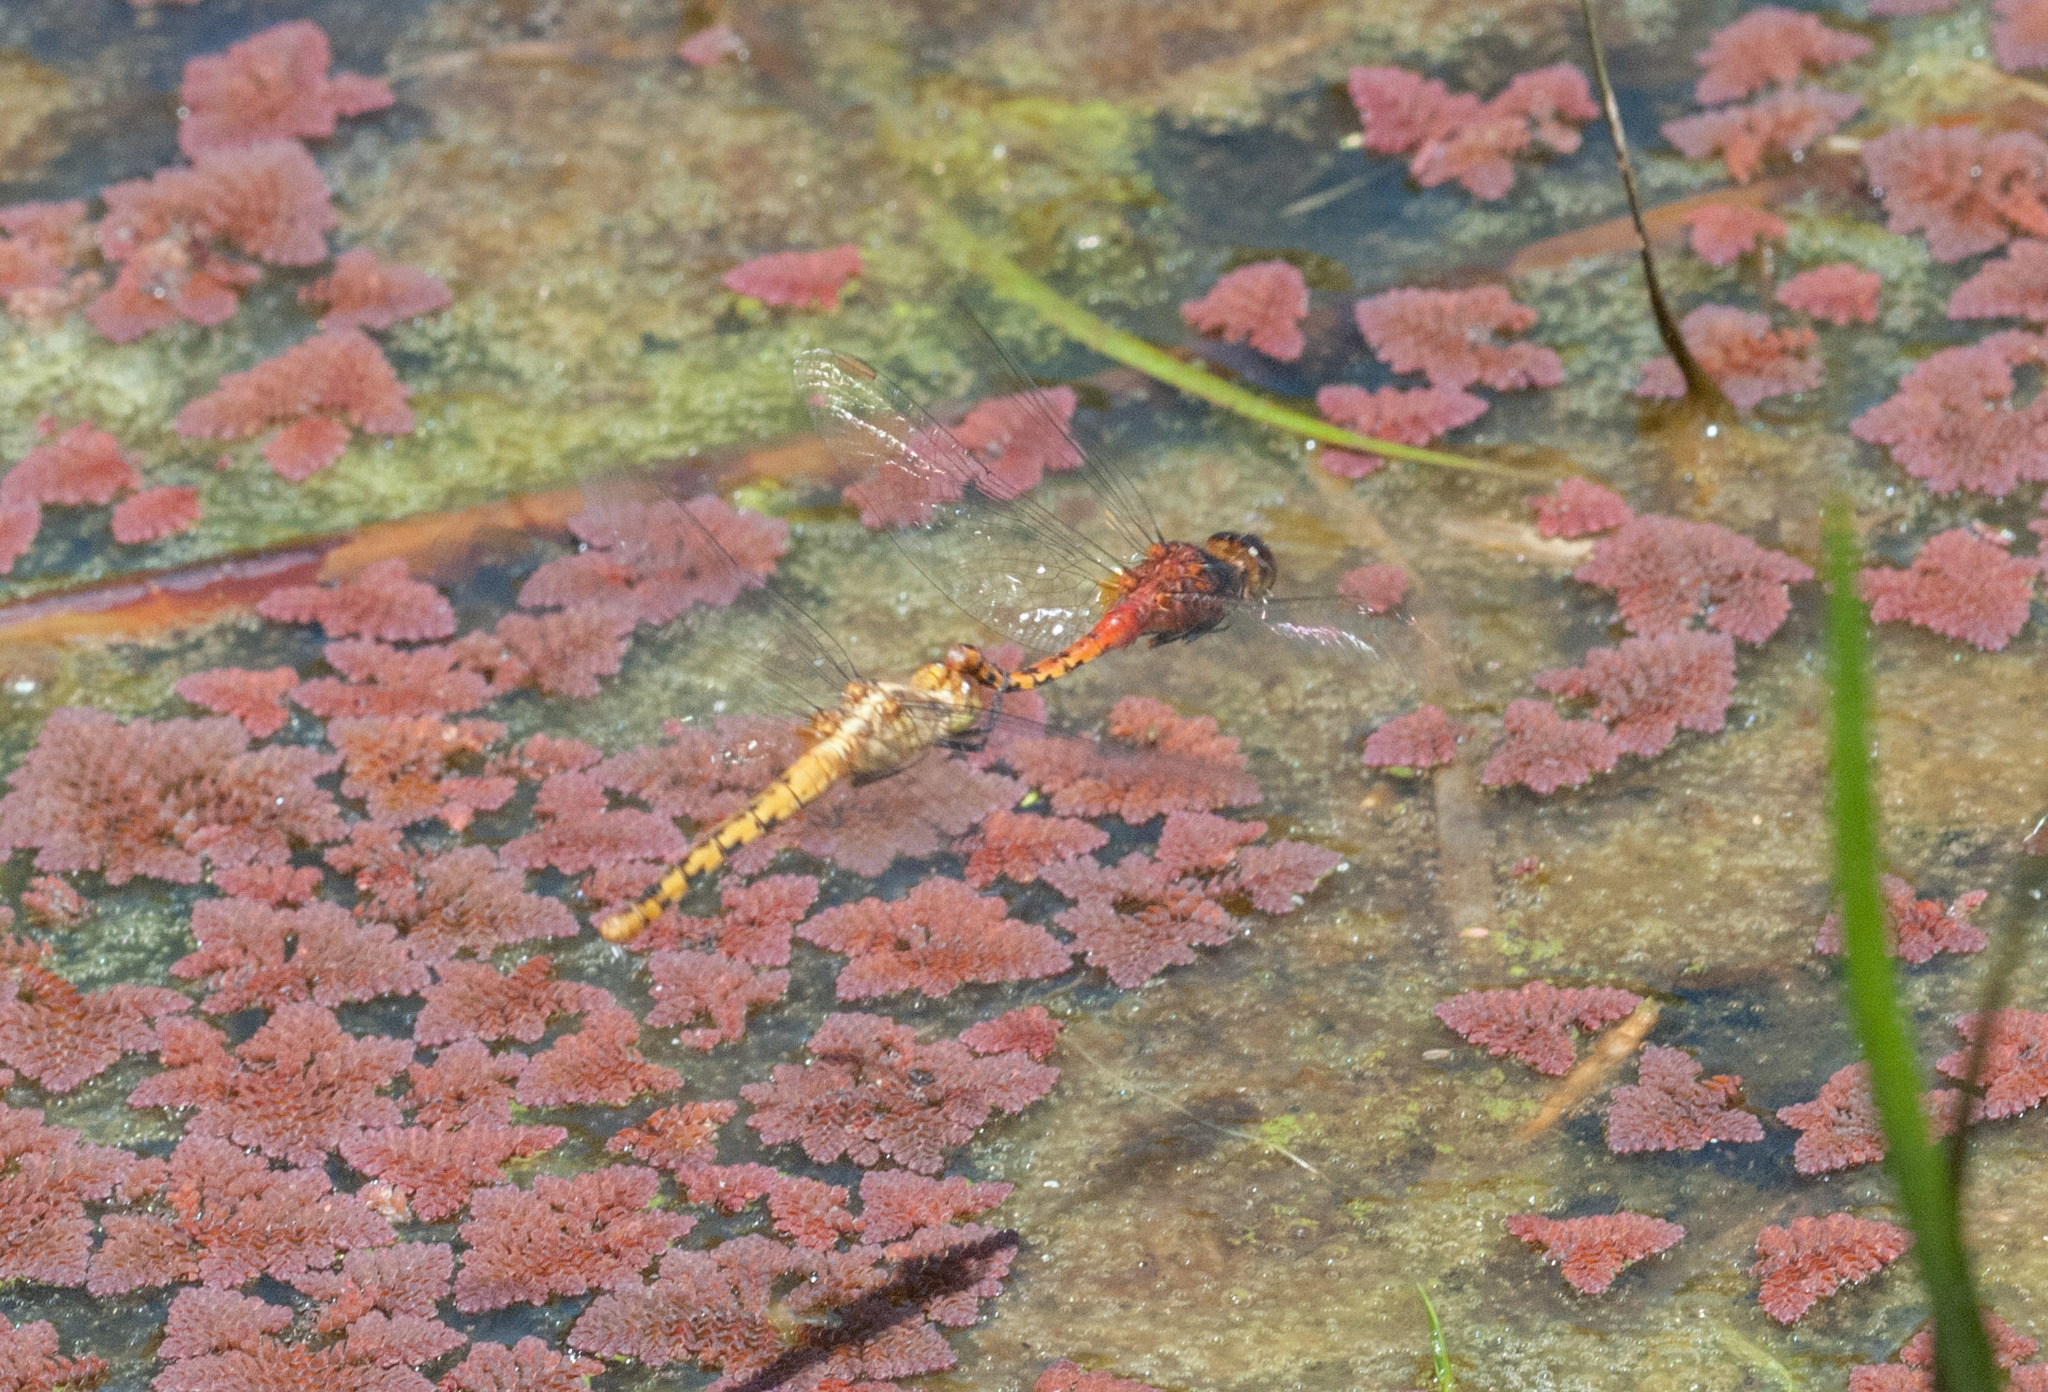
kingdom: Animalia
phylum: Arthropoda
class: Insecta
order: Odonata
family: Libellulidae
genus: Diplacodes
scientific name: Diplacodes melanopsis
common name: Black-faced percher
